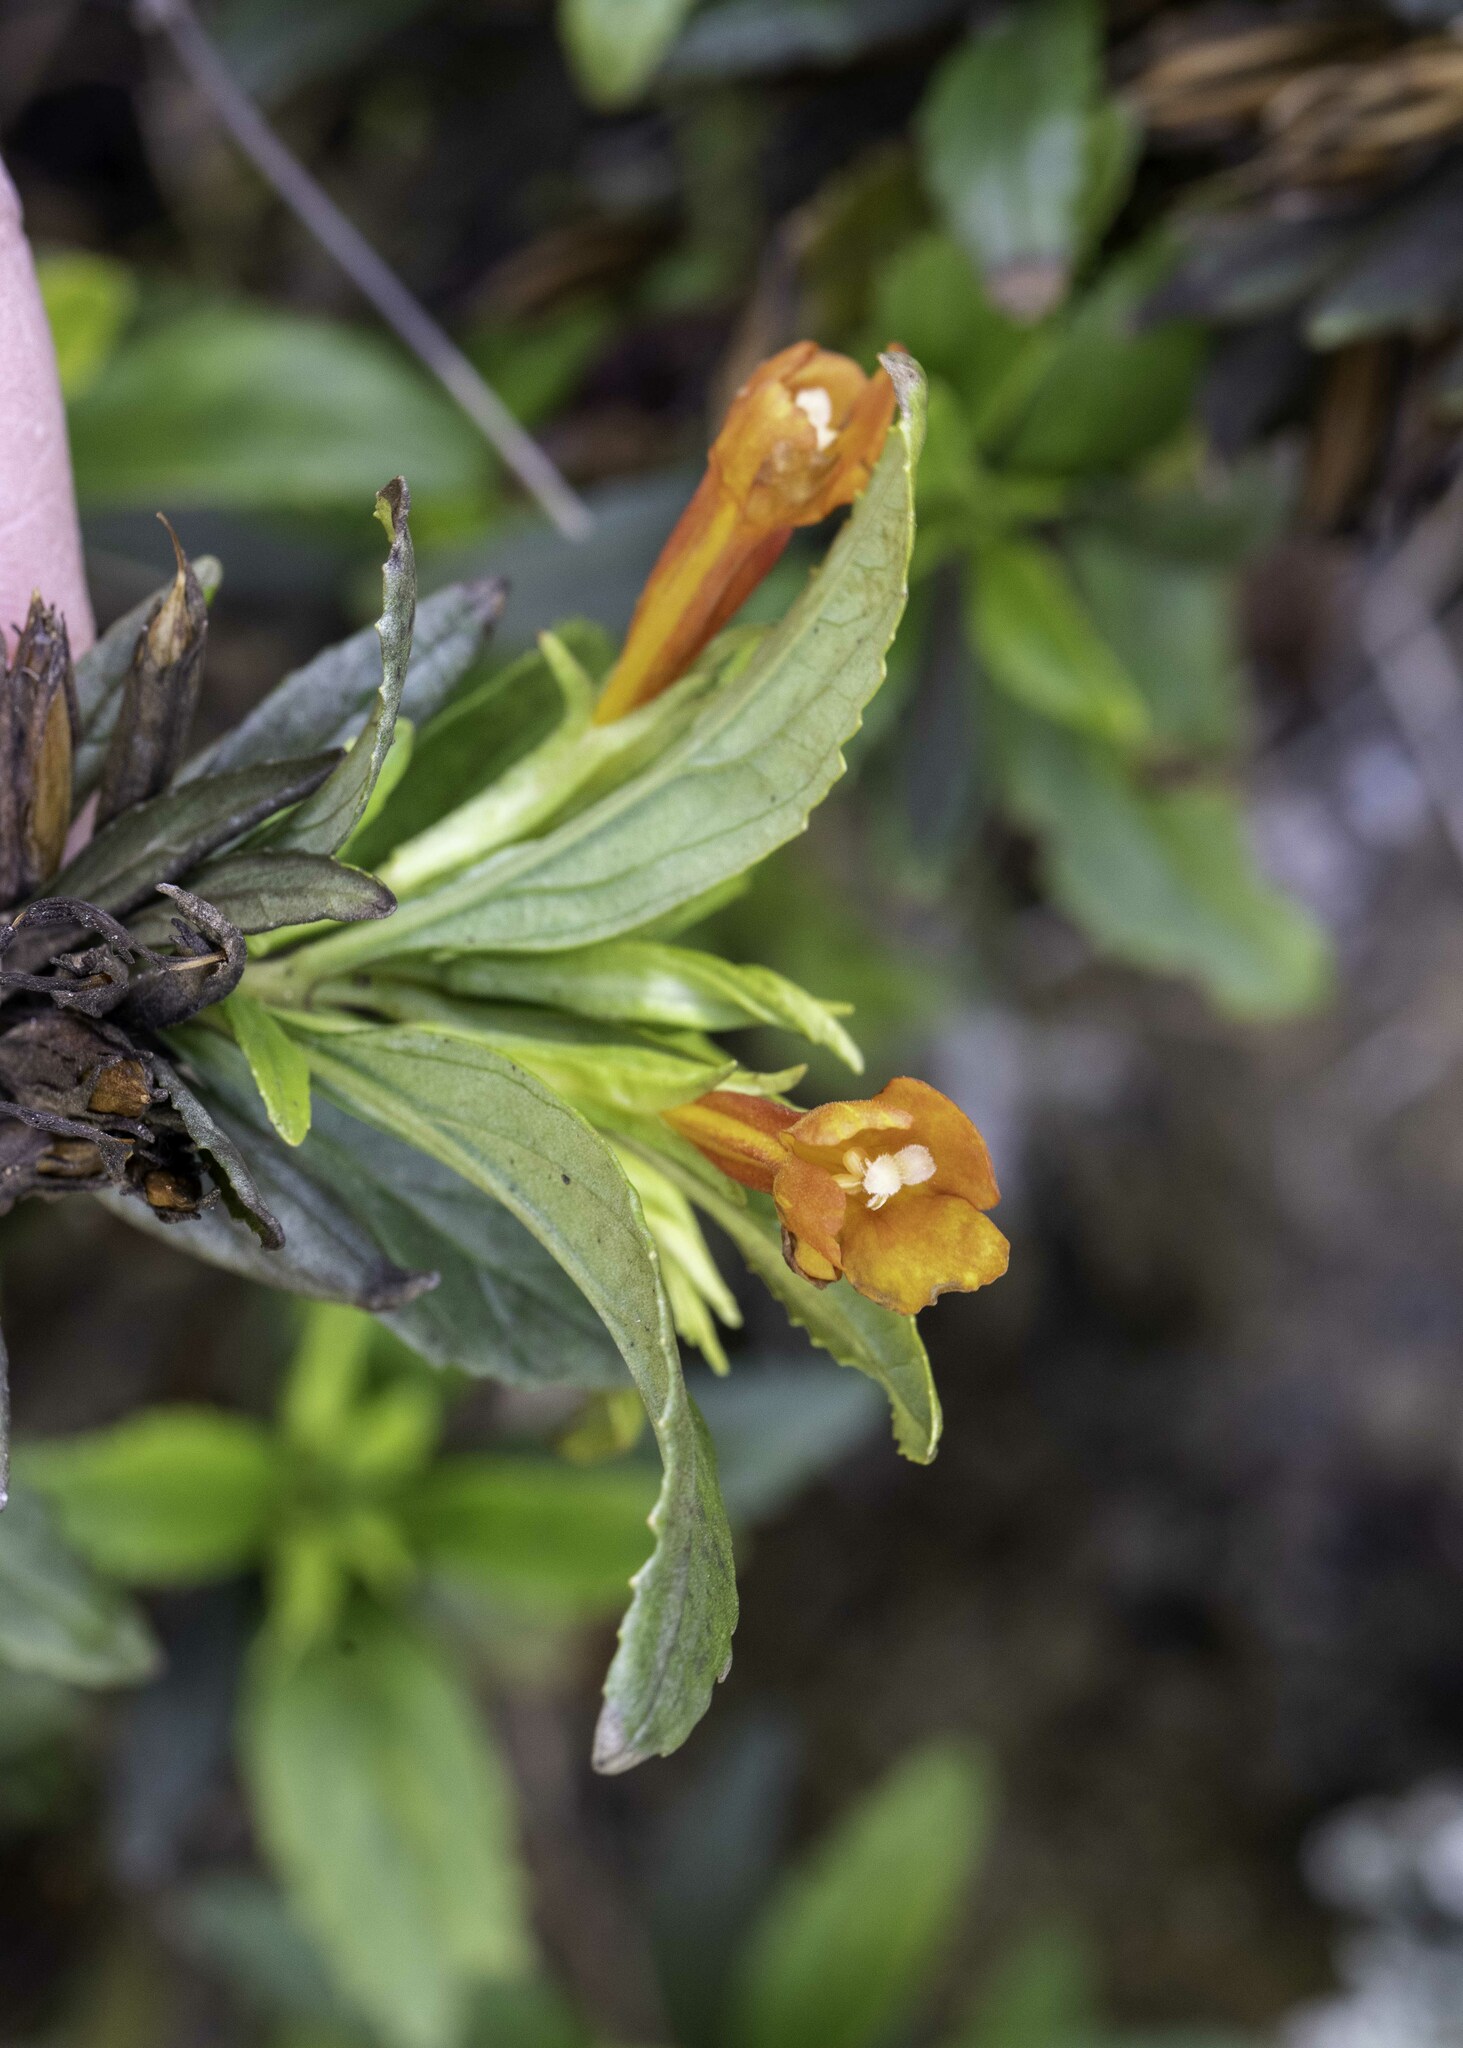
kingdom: Plantae
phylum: Tracheophyta
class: Magnoliopsida
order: Lamiales
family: Phrymaceae
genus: Diplacus
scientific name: Diplacus parviflorus
